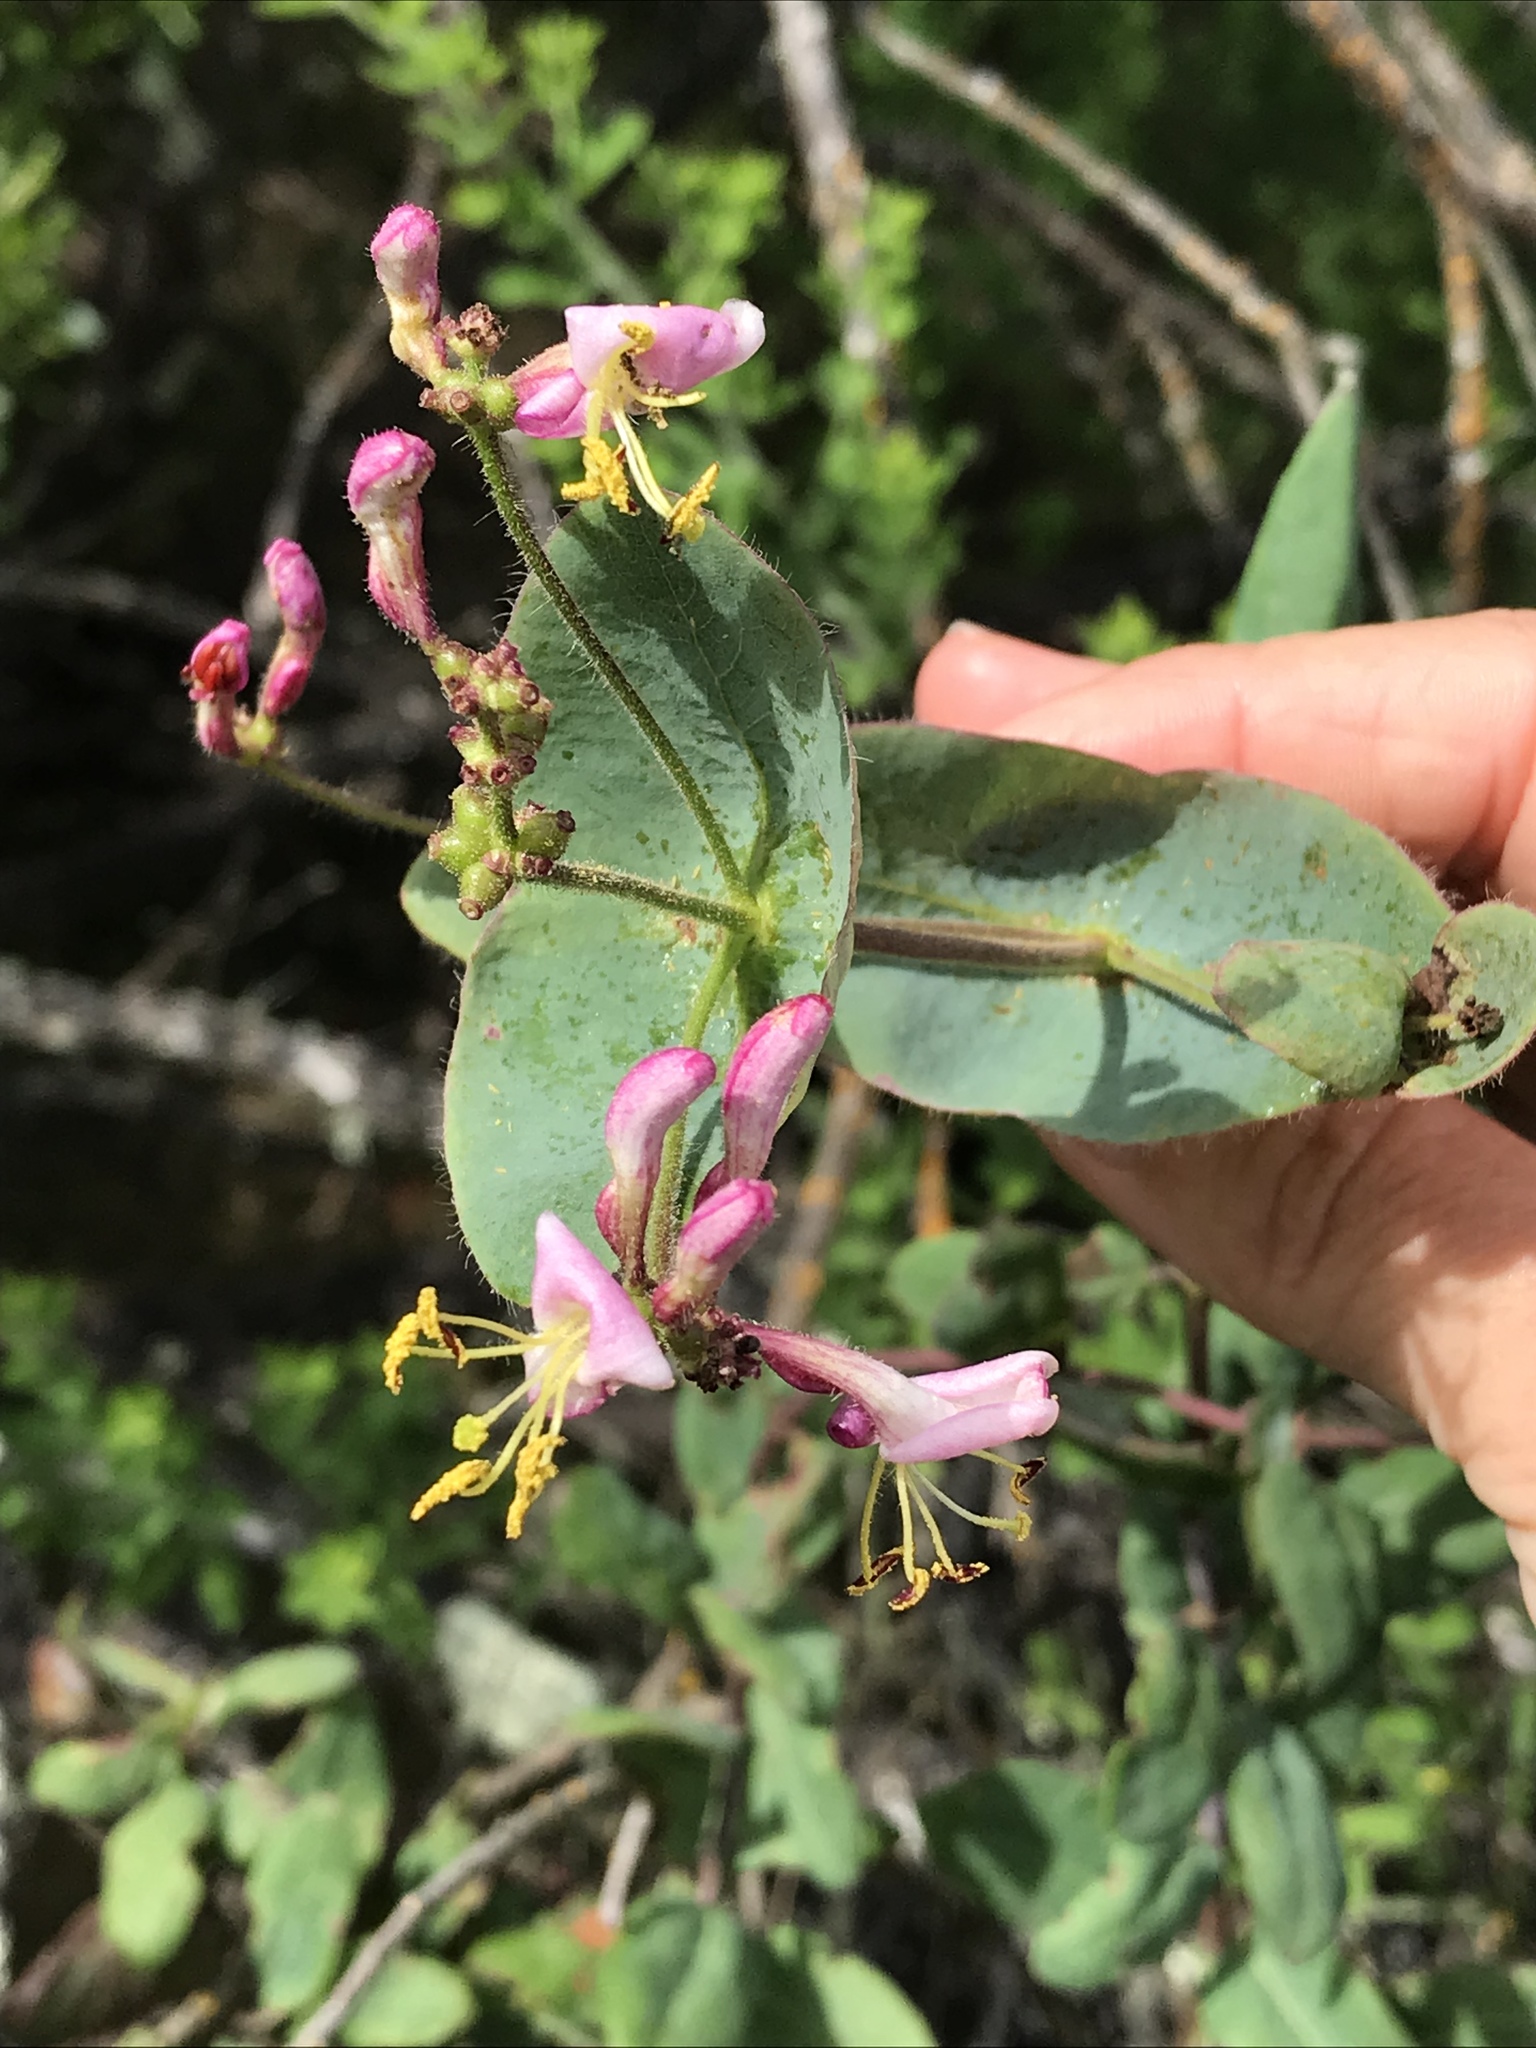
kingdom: Plantae
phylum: Tracheophyta
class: Magnoliopsida
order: Dipsacales
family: Caprifoliaceae
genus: Lonicera
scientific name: Lonicera hispidula
